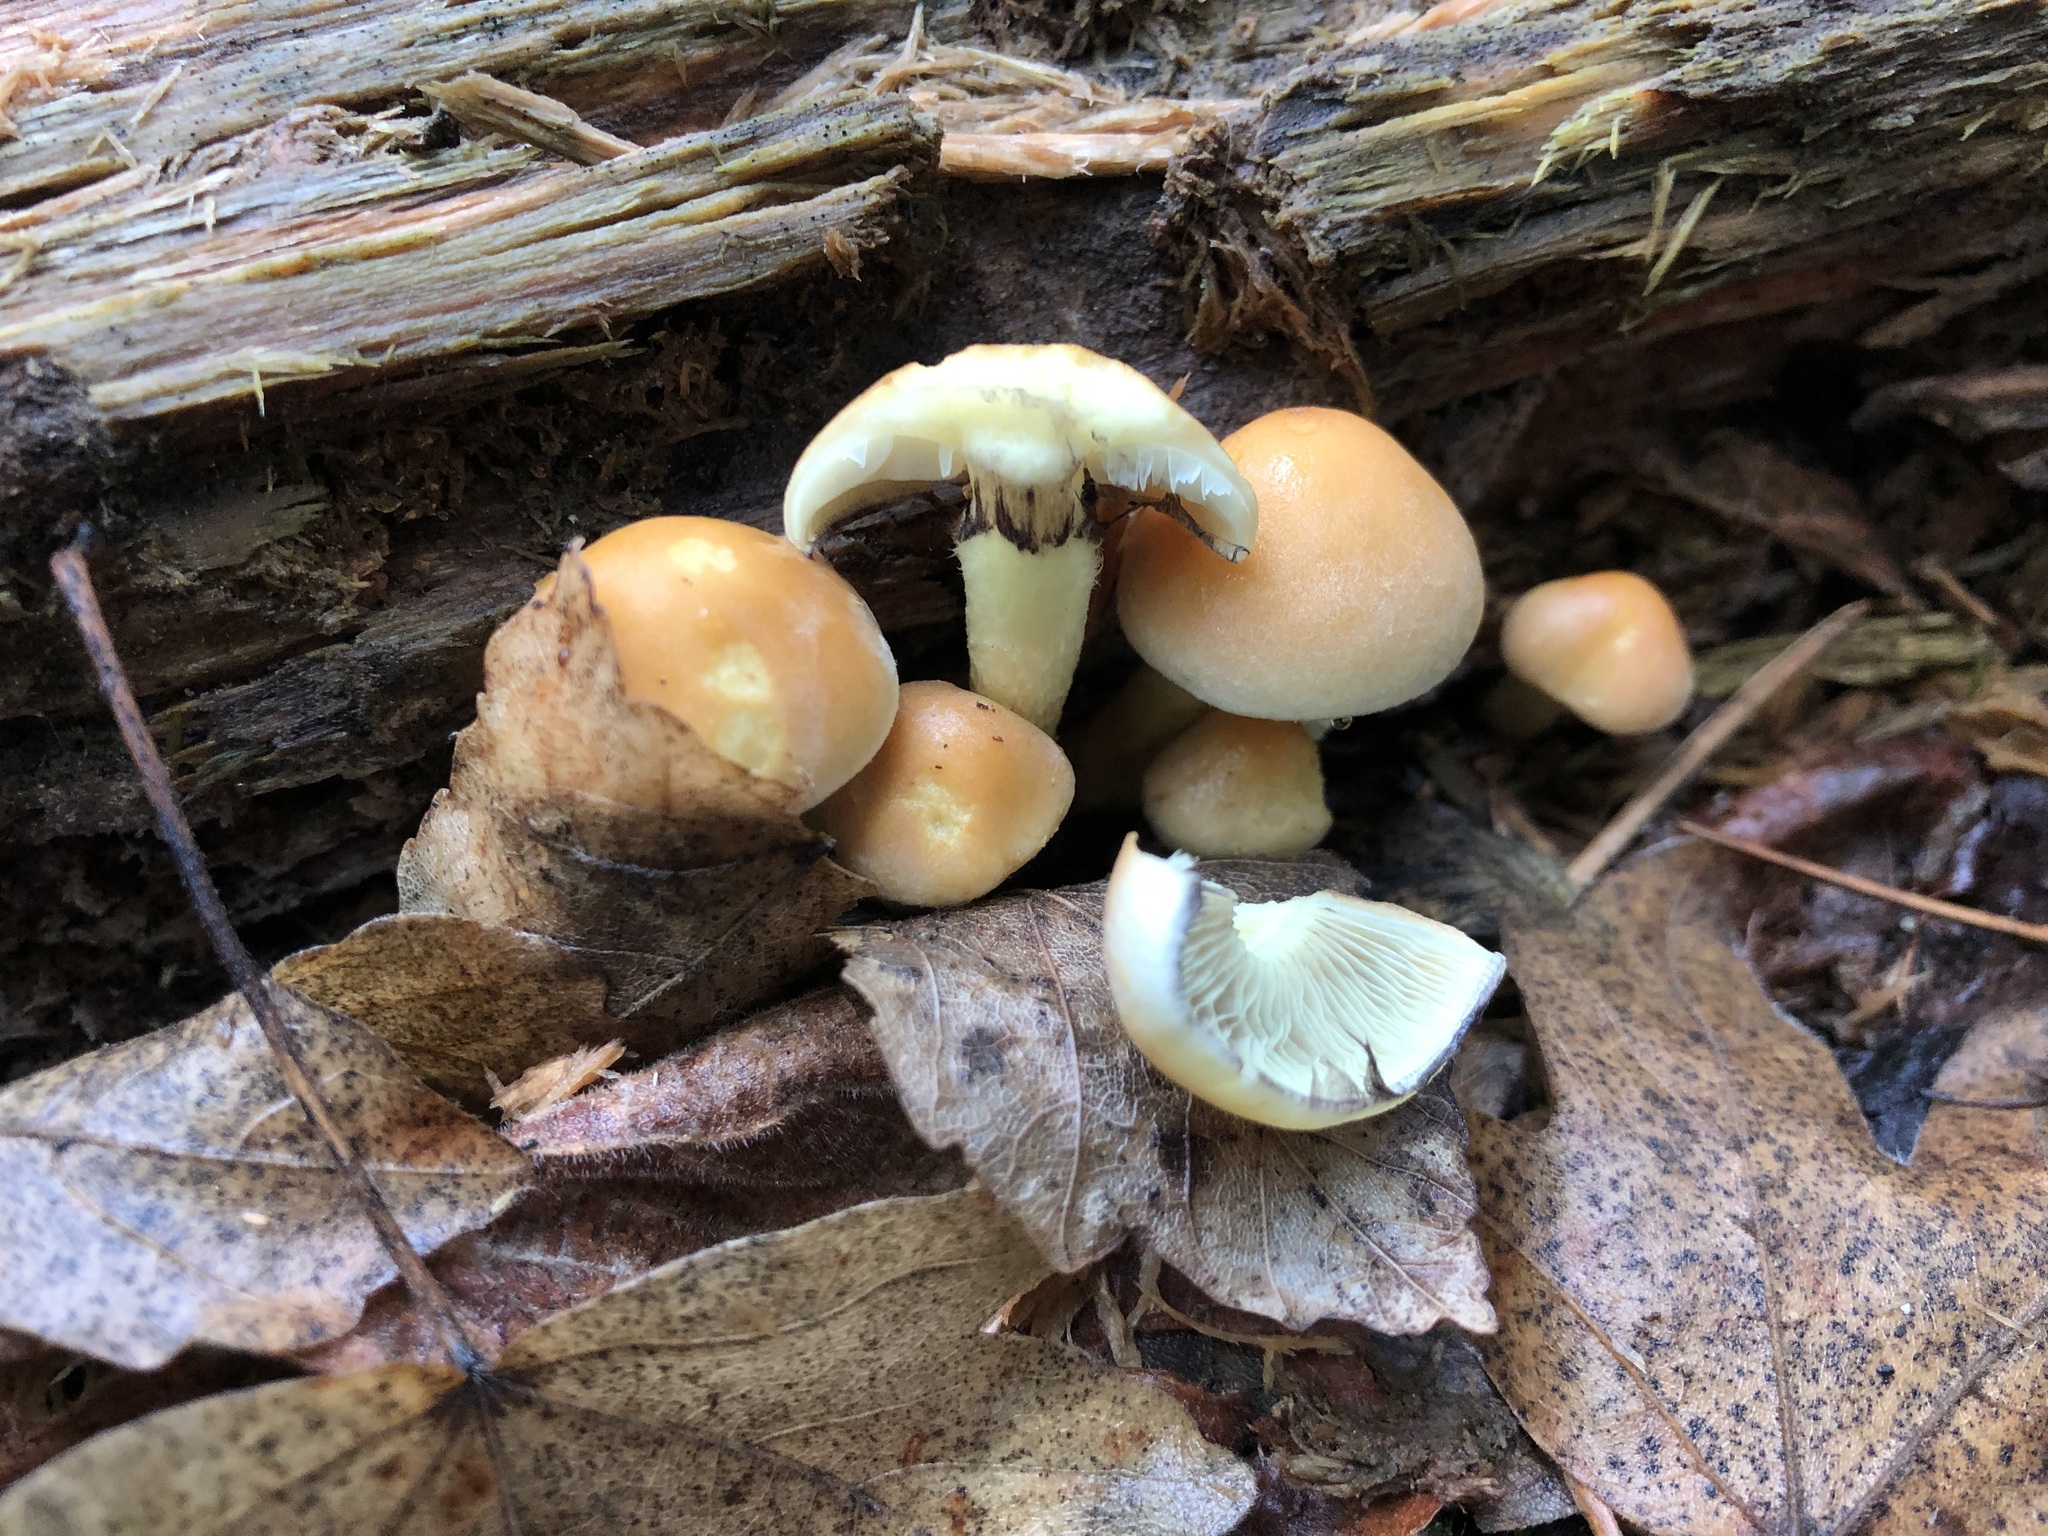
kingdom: Fungi
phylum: Basidiomycota
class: Agaricomycetes
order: Agaricales
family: Strophariaceae
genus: Hypholoma
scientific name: Hypholoma fasciculare
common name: Sulphur tuft
